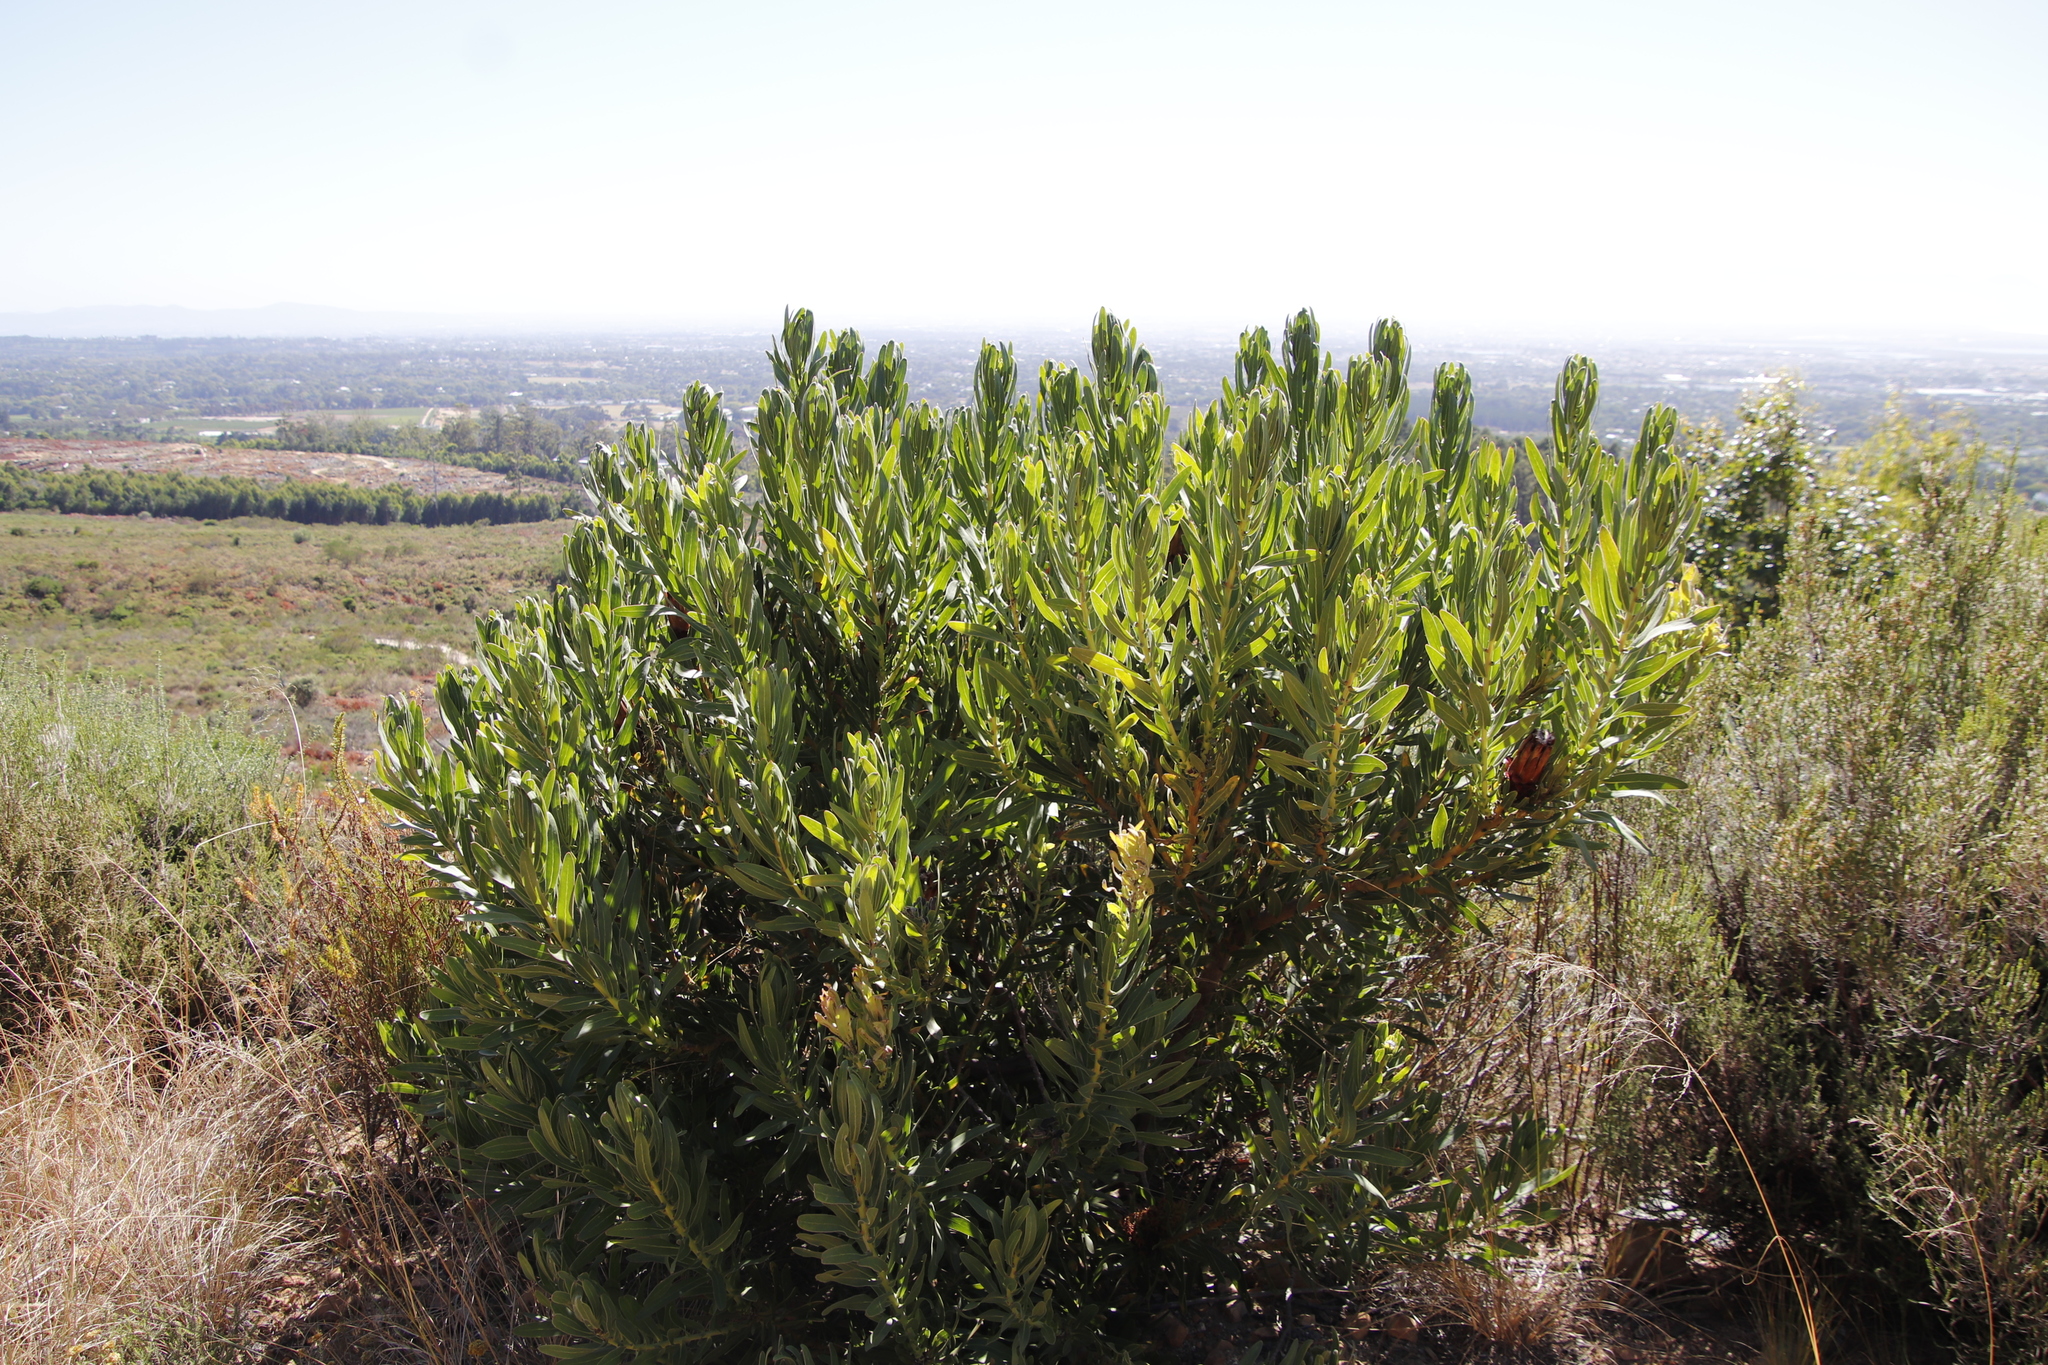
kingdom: Plantae
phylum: Tracheophyta
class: Magnoliopsida
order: Proteales
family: Proteaceae
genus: Protea
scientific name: Protea lepidocarpodendron
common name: Black-bearded protea
